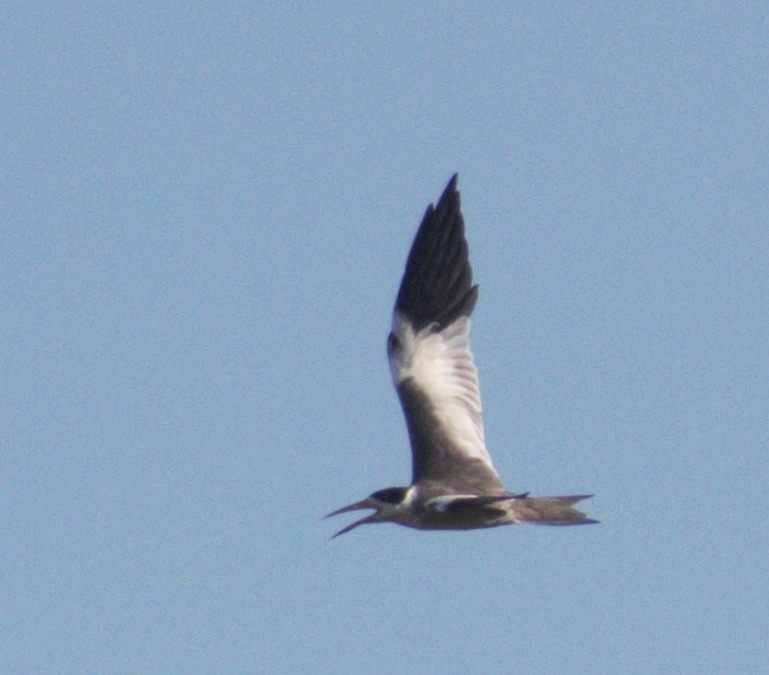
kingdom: Animalia
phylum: Chordata
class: Aves
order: Charadriiformes
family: Laridae
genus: Phaetusa
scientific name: Phaetusa simplex
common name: Large-billed tern
